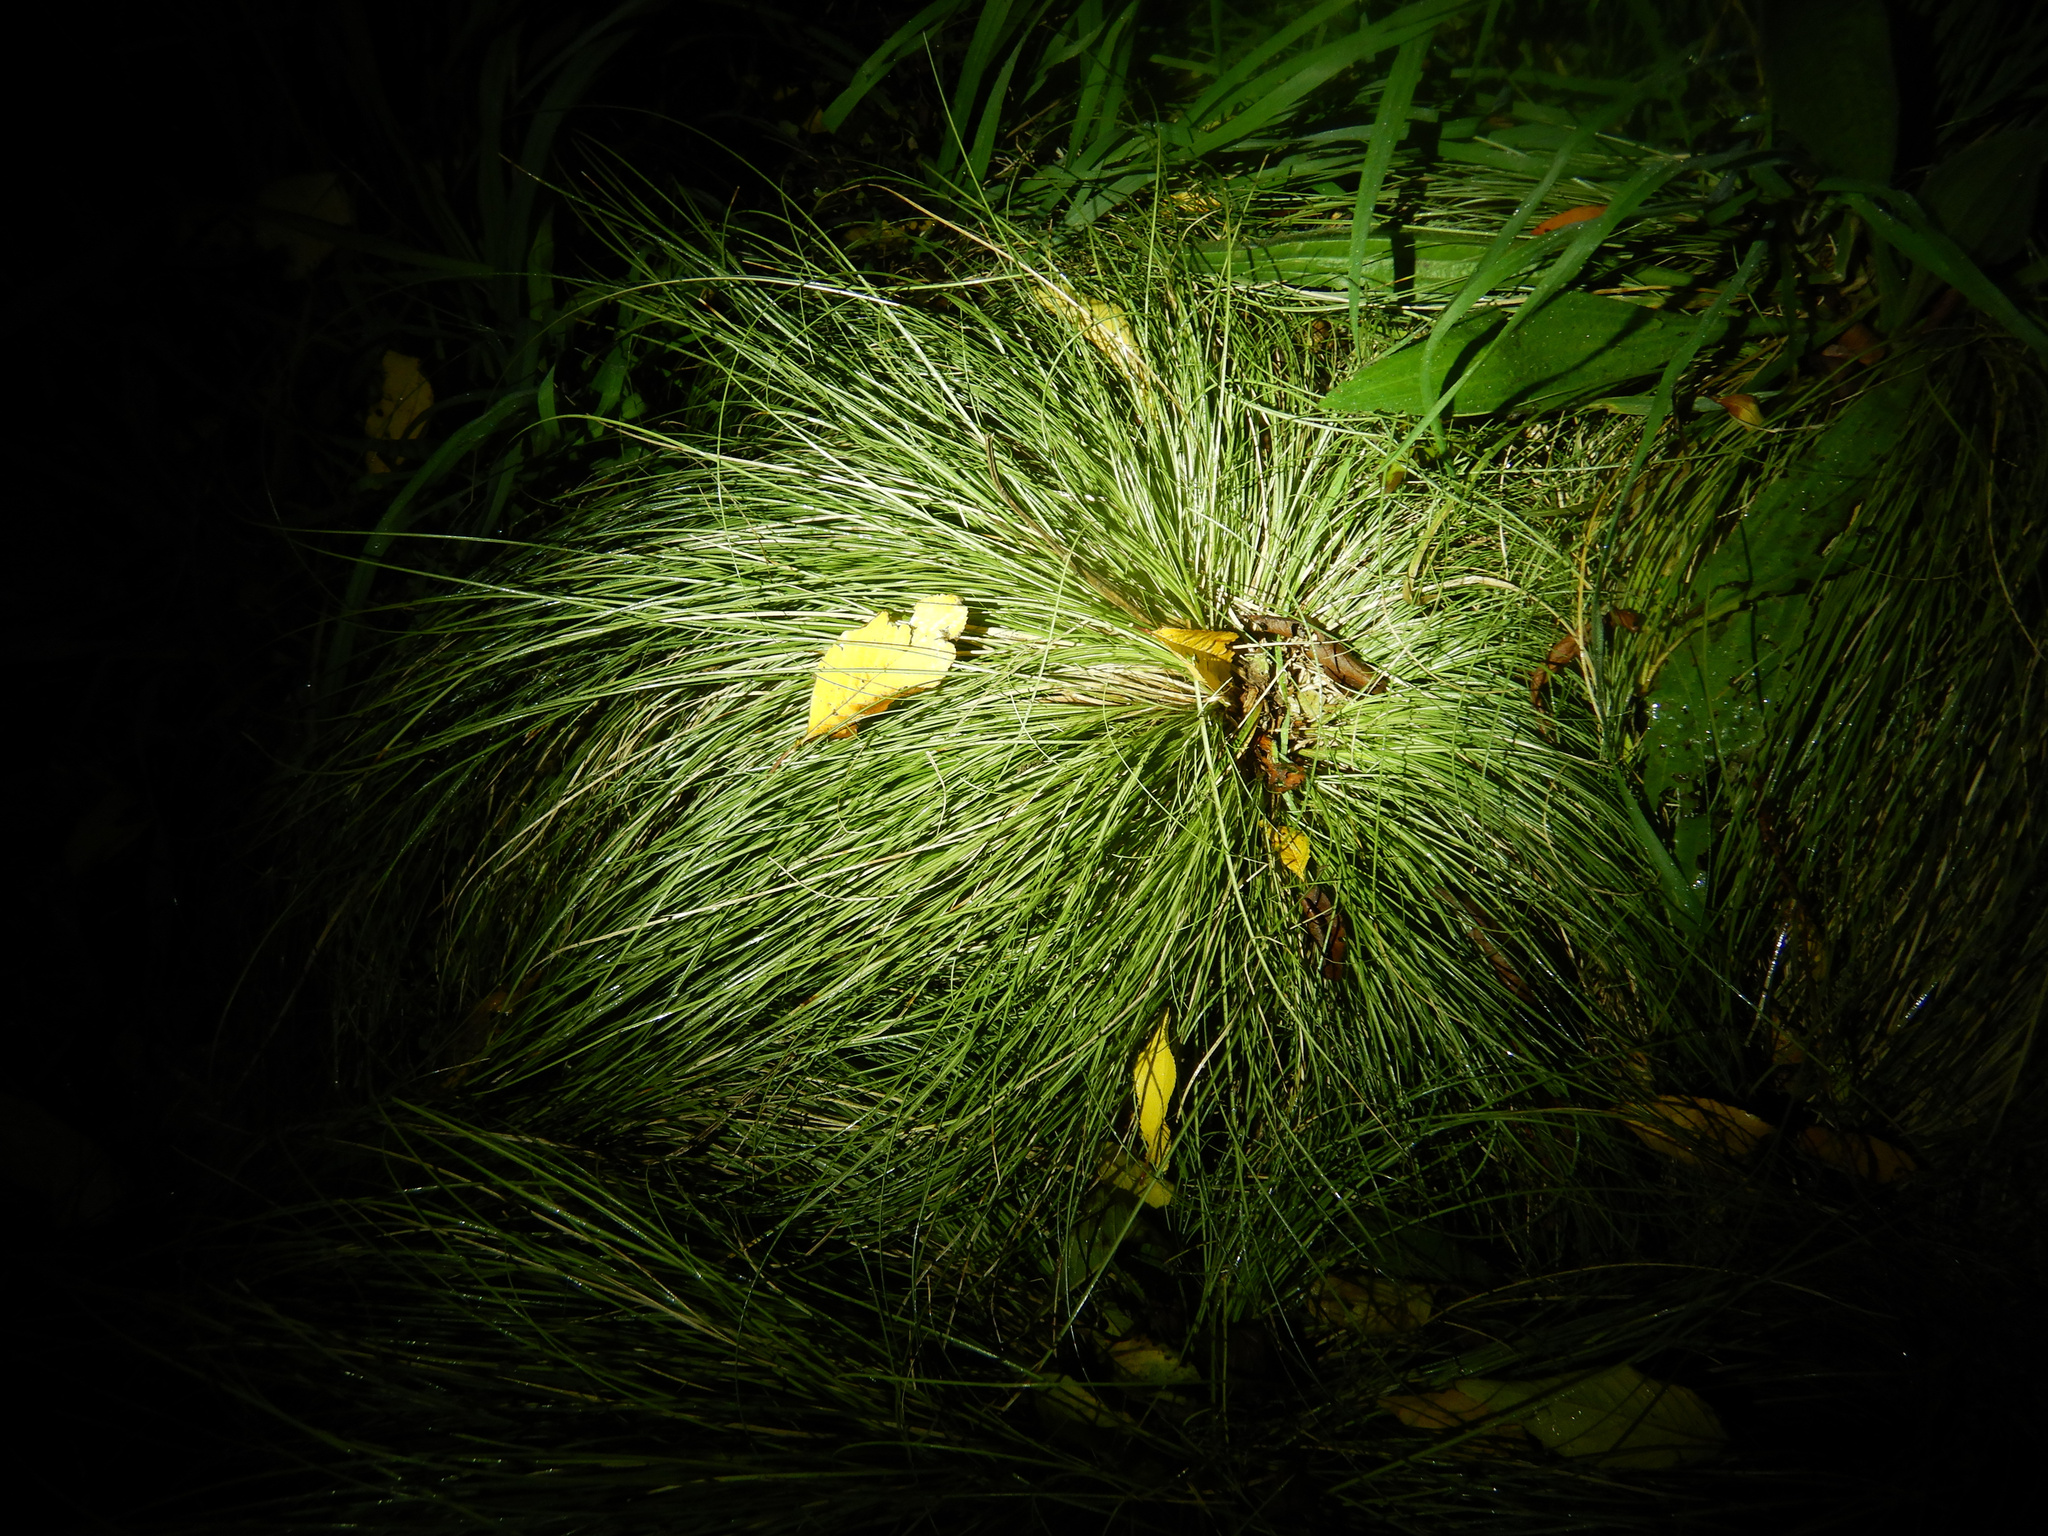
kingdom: Plantae
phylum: Tracheophyta
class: Liliopsida
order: Poales
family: Cyperaceae
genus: Carex
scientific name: Carex comans
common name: Longwood tussock
